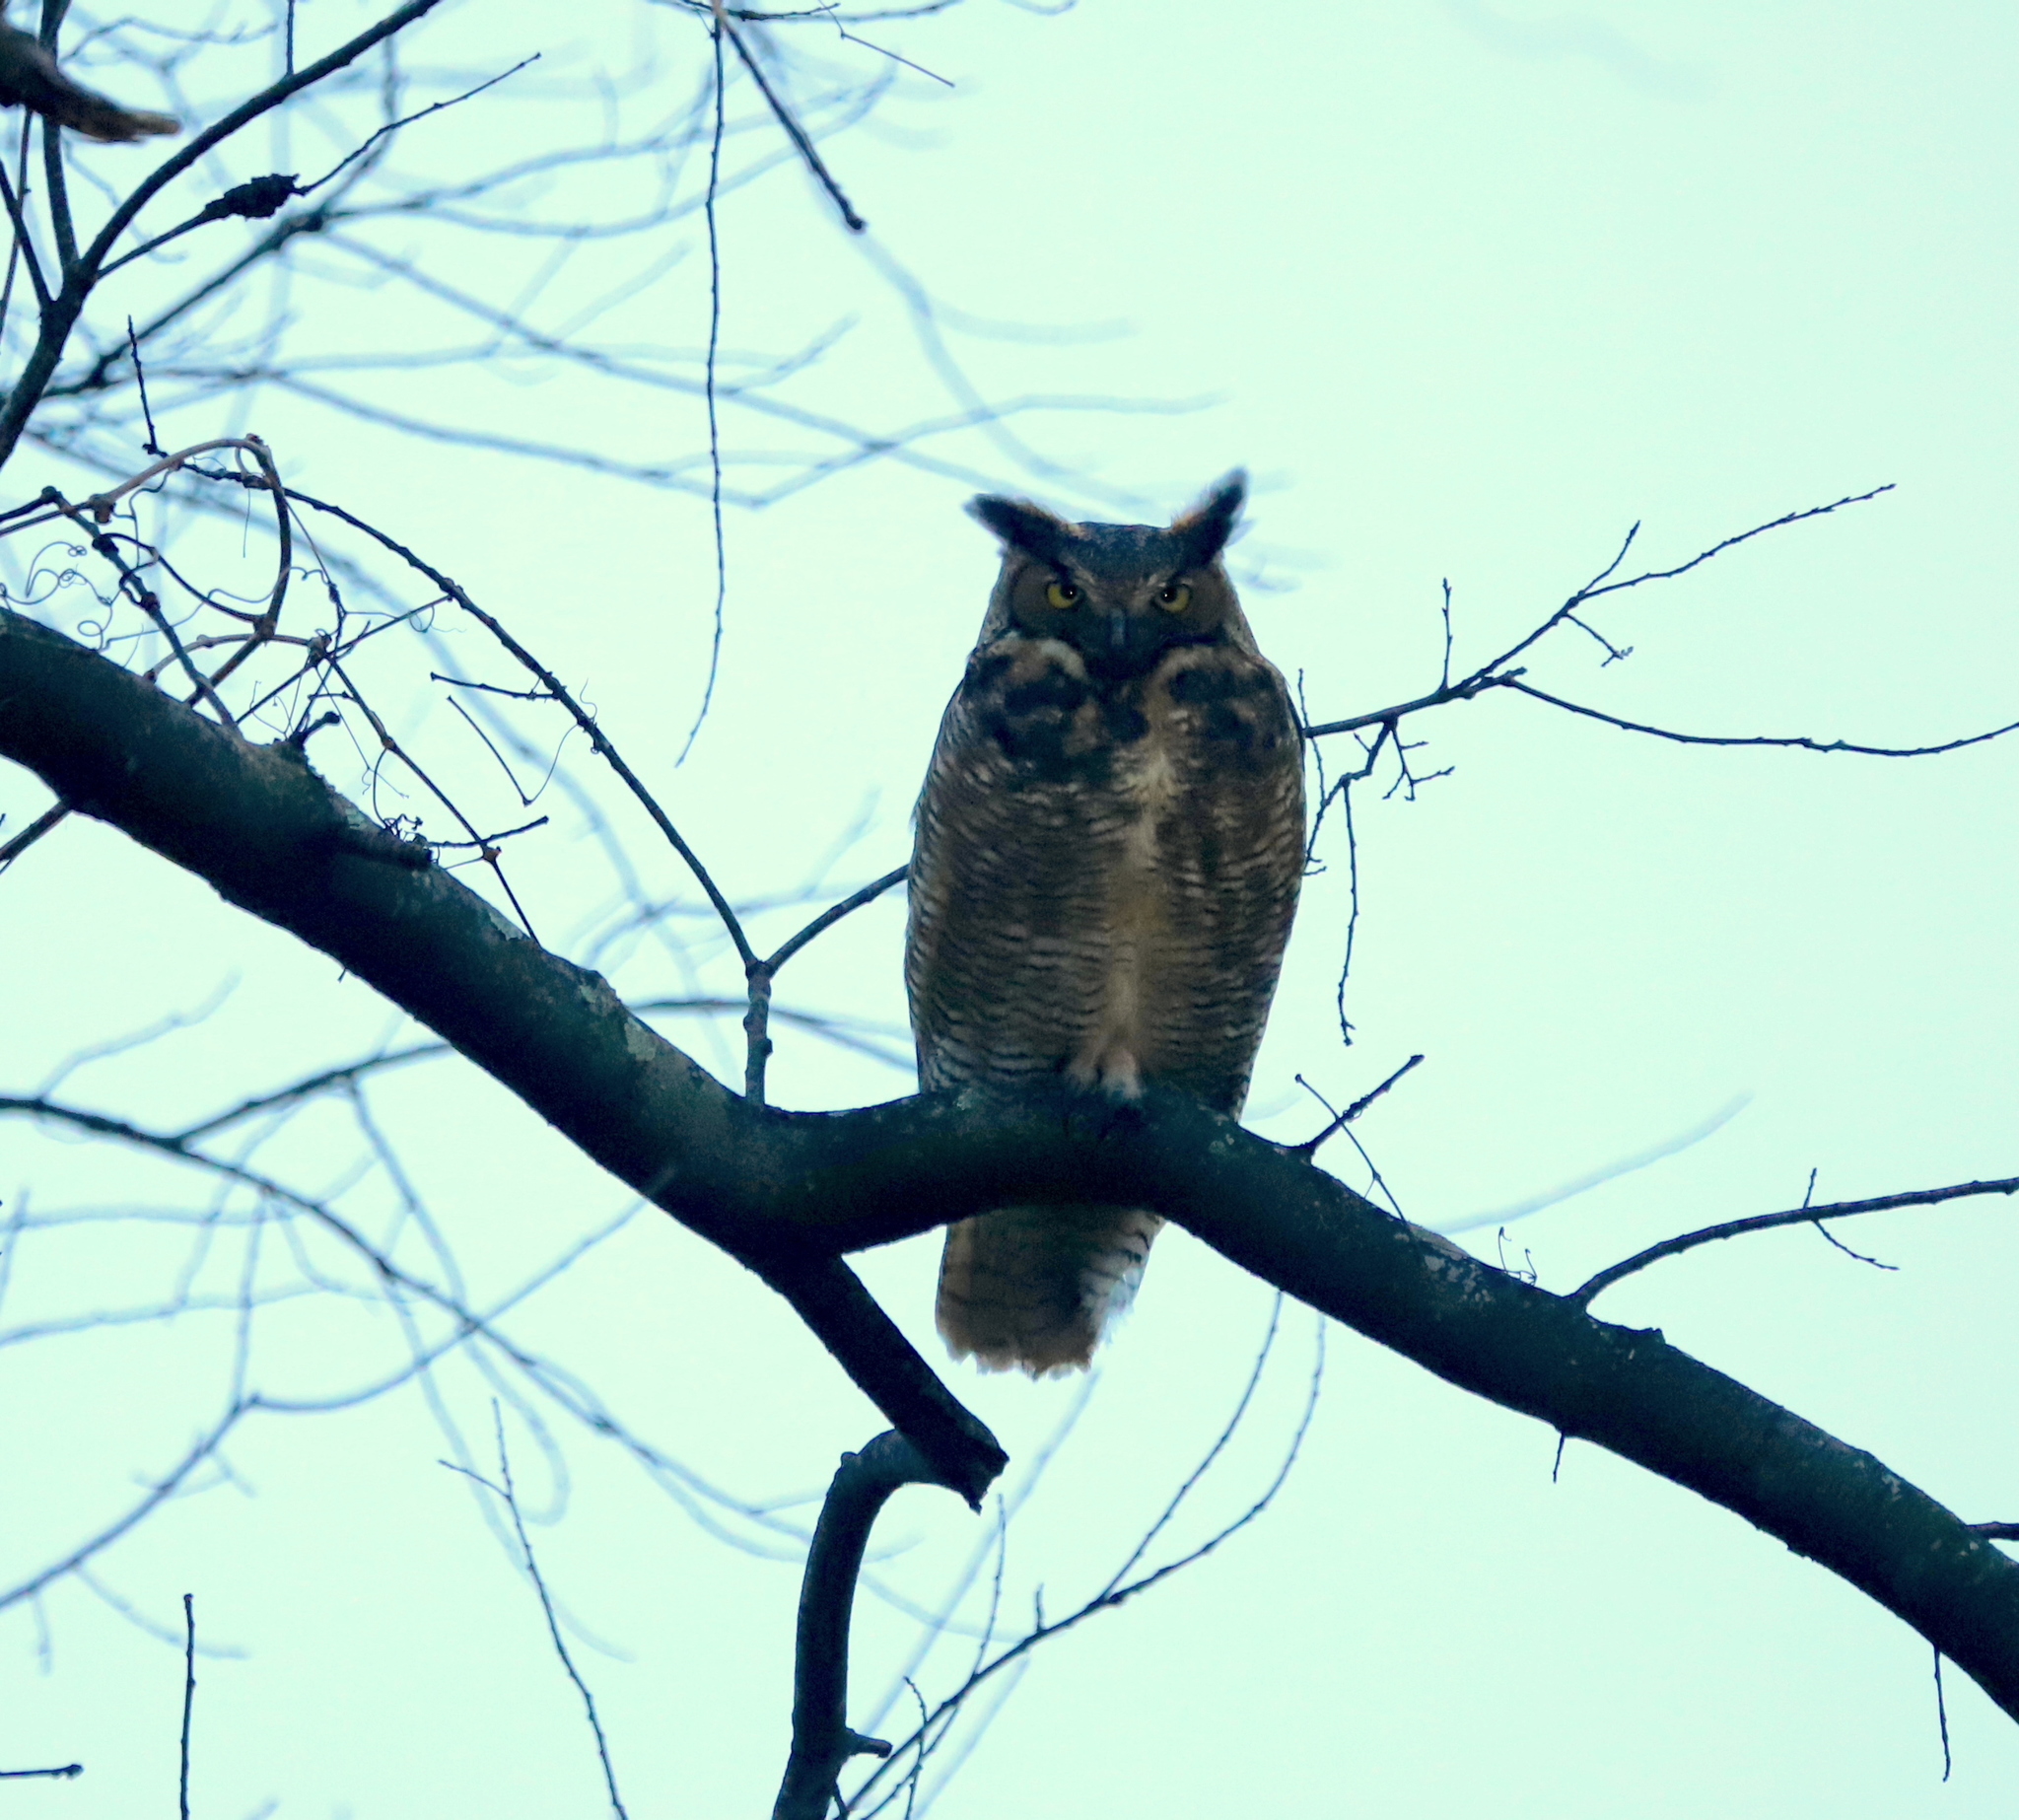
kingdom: Animalia
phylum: Chordata
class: Aves
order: Strigiformes
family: Strigidae
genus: Bubo
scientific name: Bubo virginianus
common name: Great horned owl
